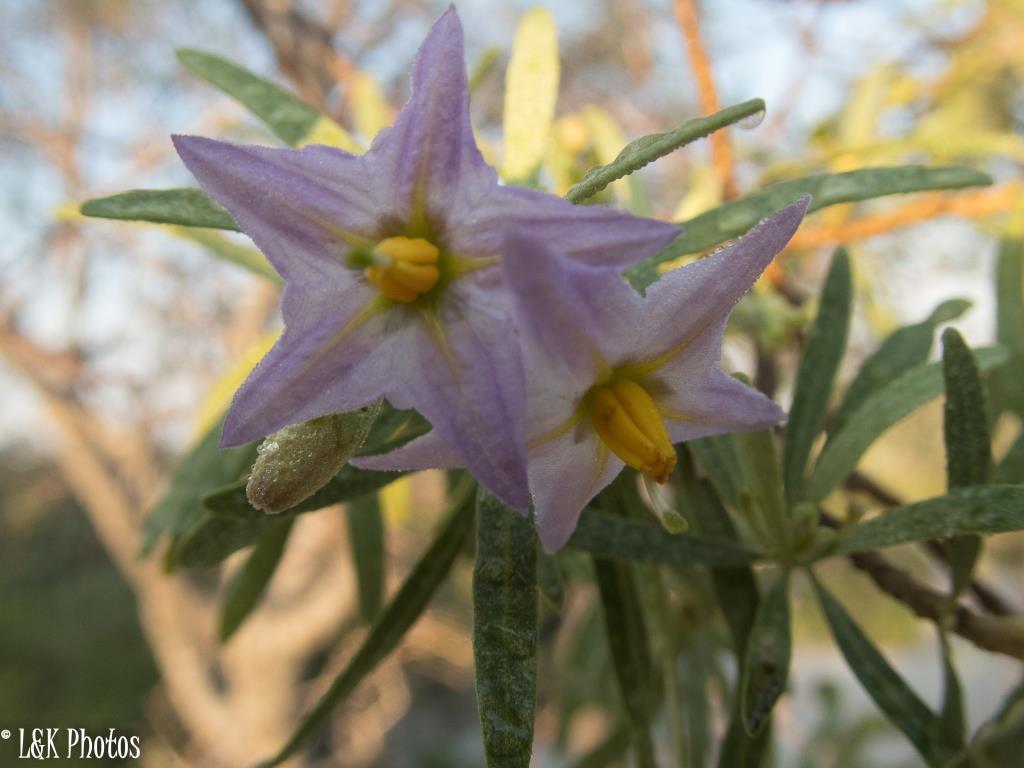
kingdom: Plantae
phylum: Tracheophyta
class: Magnoliopsida
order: Solanales
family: Solanaceae
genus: Solanum
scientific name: Solanum bumeliifolium
